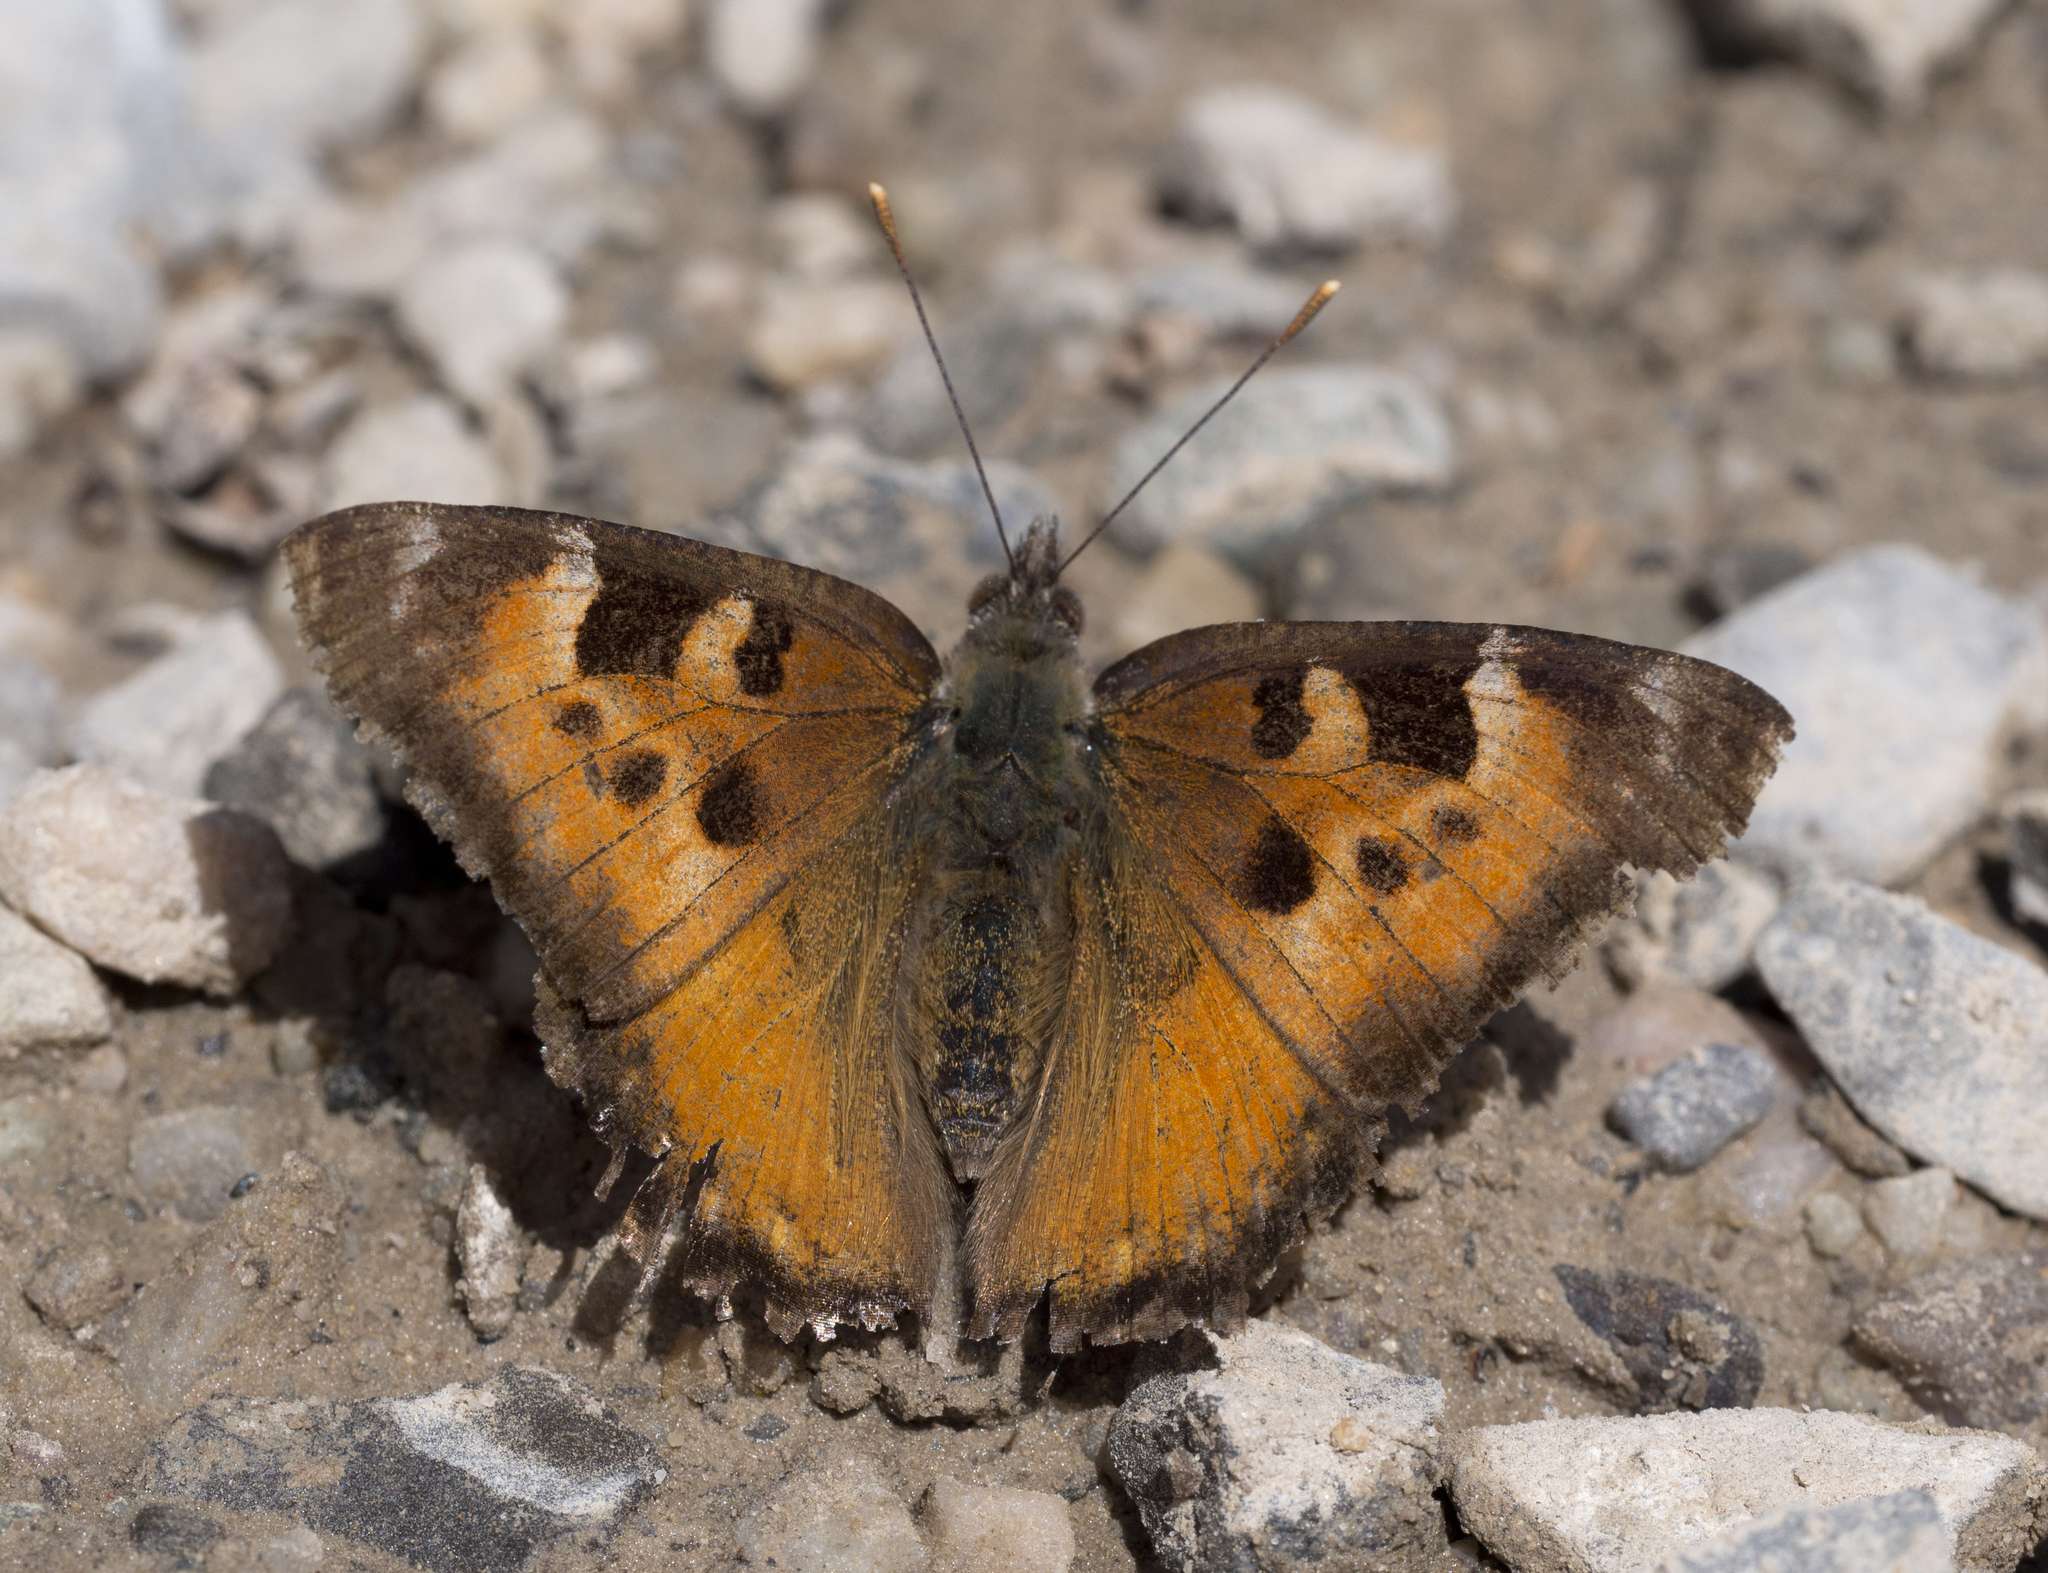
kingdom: Animalia
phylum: Arthropoda
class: Insecta
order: Lepidoptera
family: Nymphalidae
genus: Nymphalis
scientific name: Nymphalis californica
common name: California tortoiseshell
